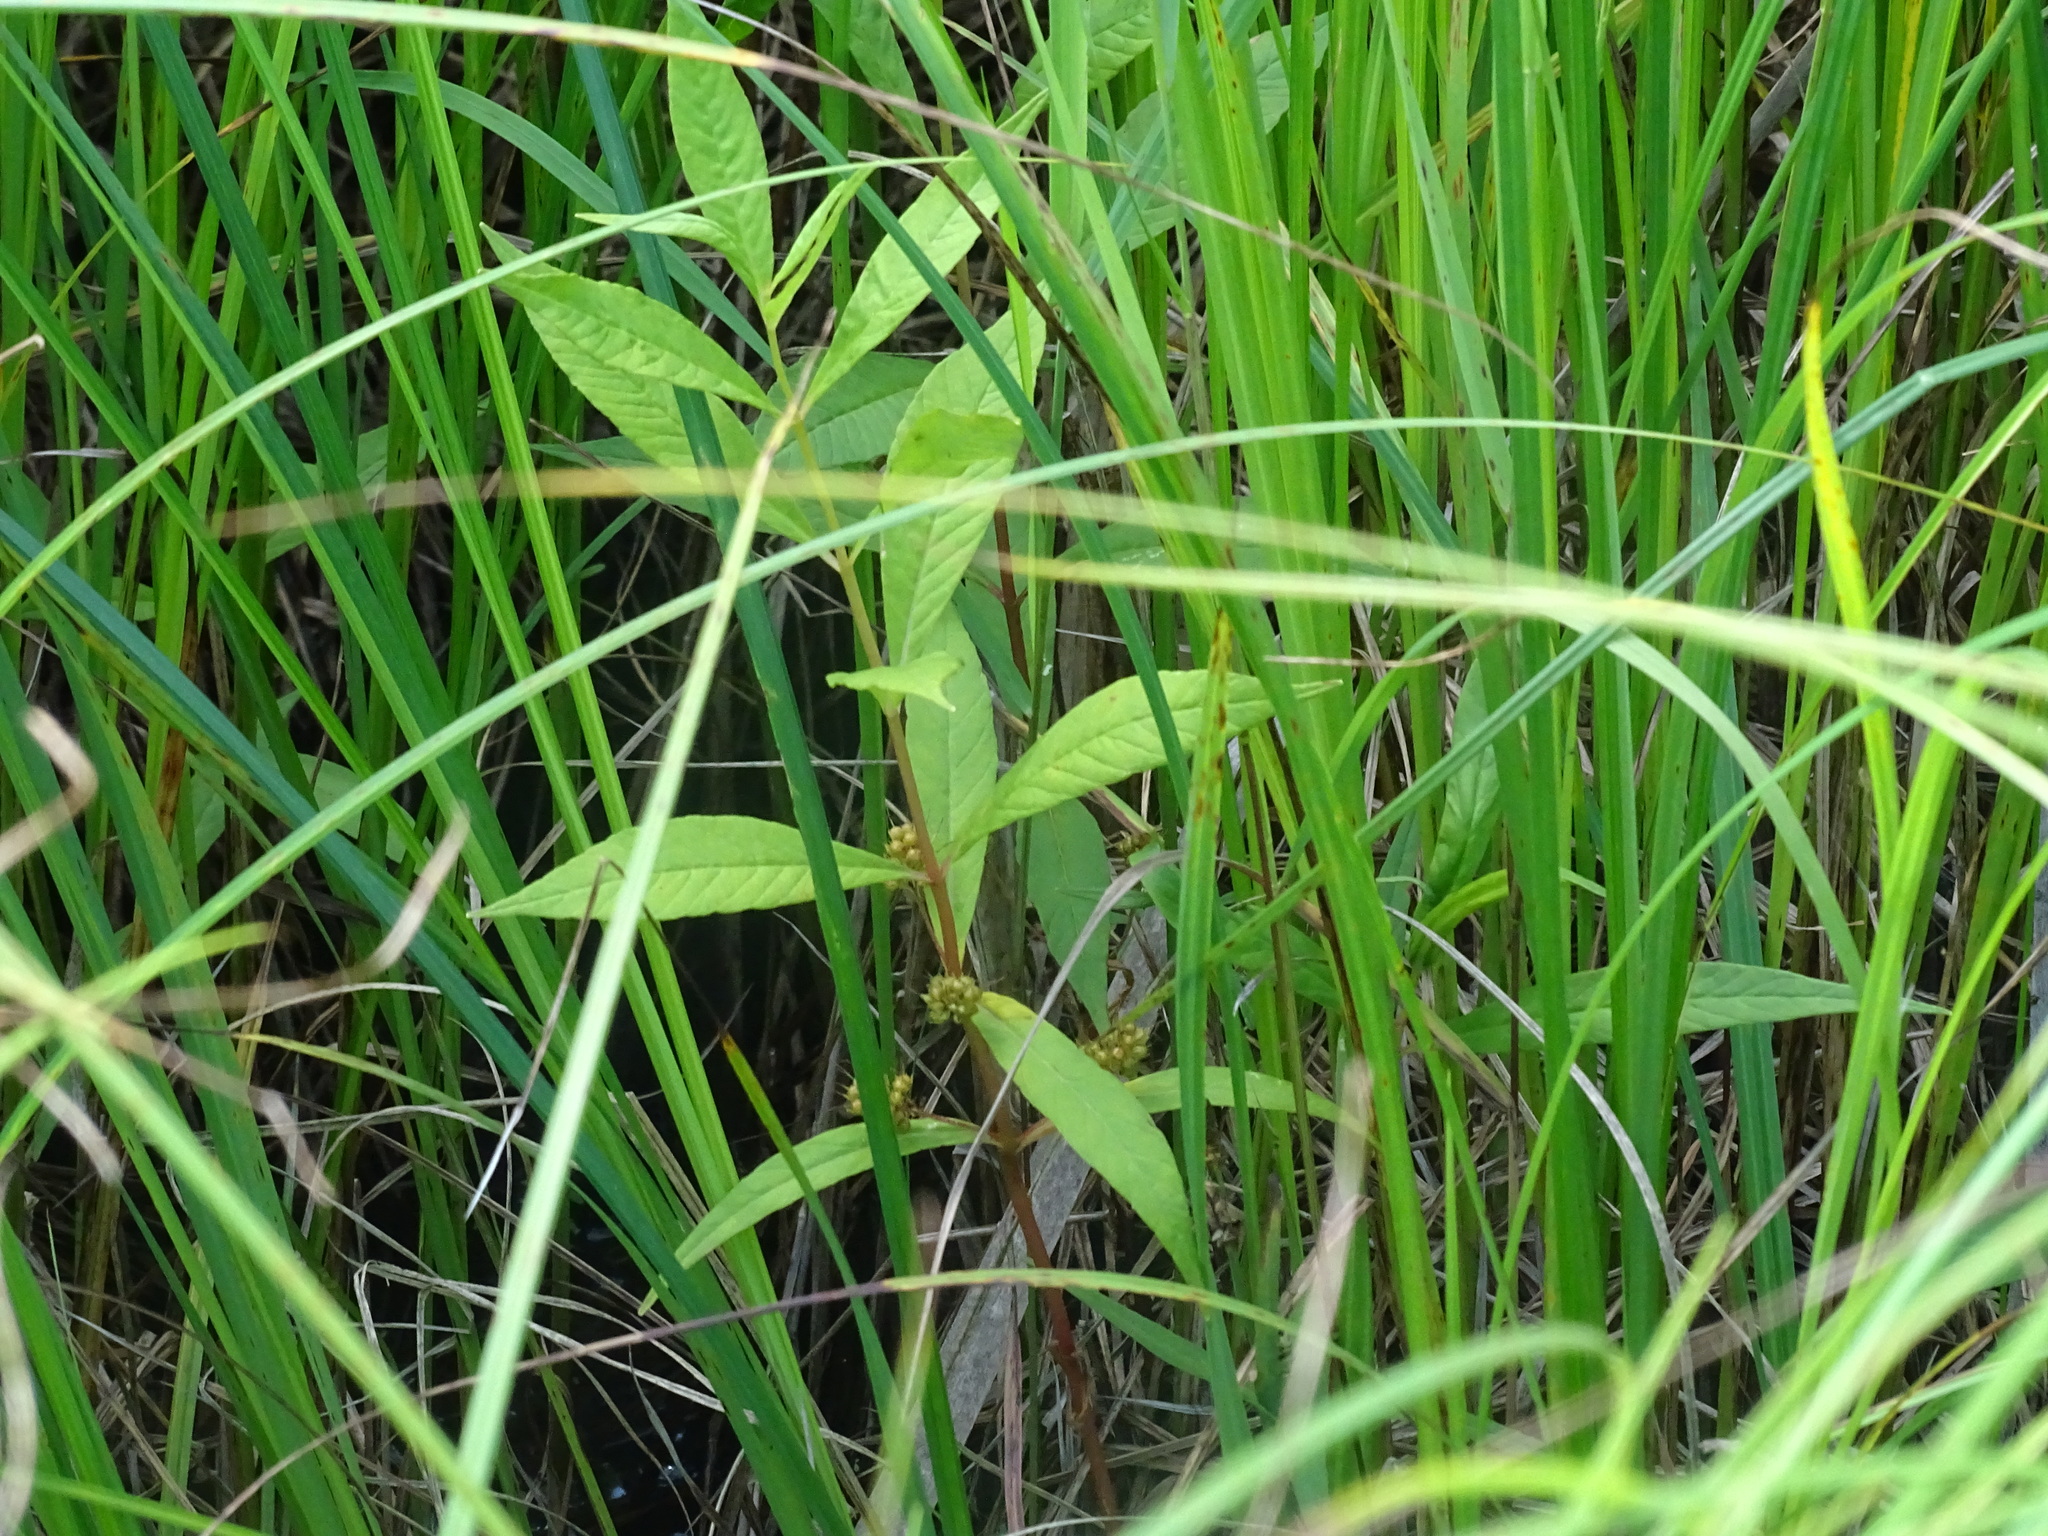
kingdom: Plantae
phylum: Tracheophyta
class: Magnoliopsida
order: Ericales
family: Primulaceae
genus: Lysimachia
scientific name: Lysimachia thyrsiflora
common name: Tufted loosestrife
